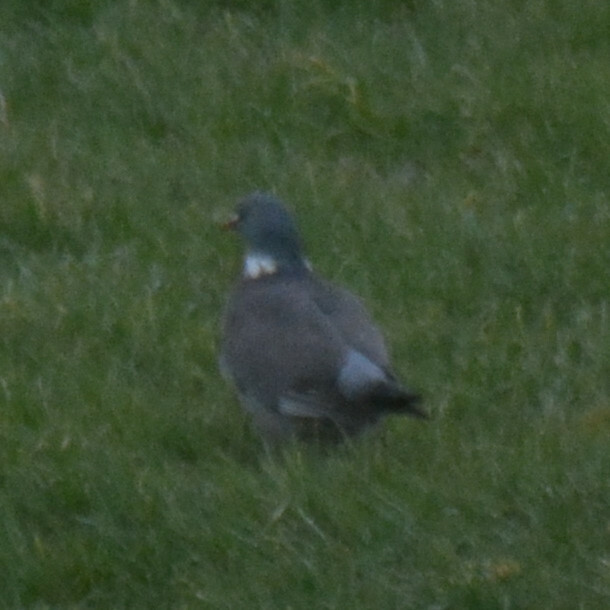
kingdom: Animalia
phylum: Chordata
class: Aves
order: Columbiformes
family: Columbidae
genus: Columba
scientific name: Columba palumbus
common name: Common wood pigeon
